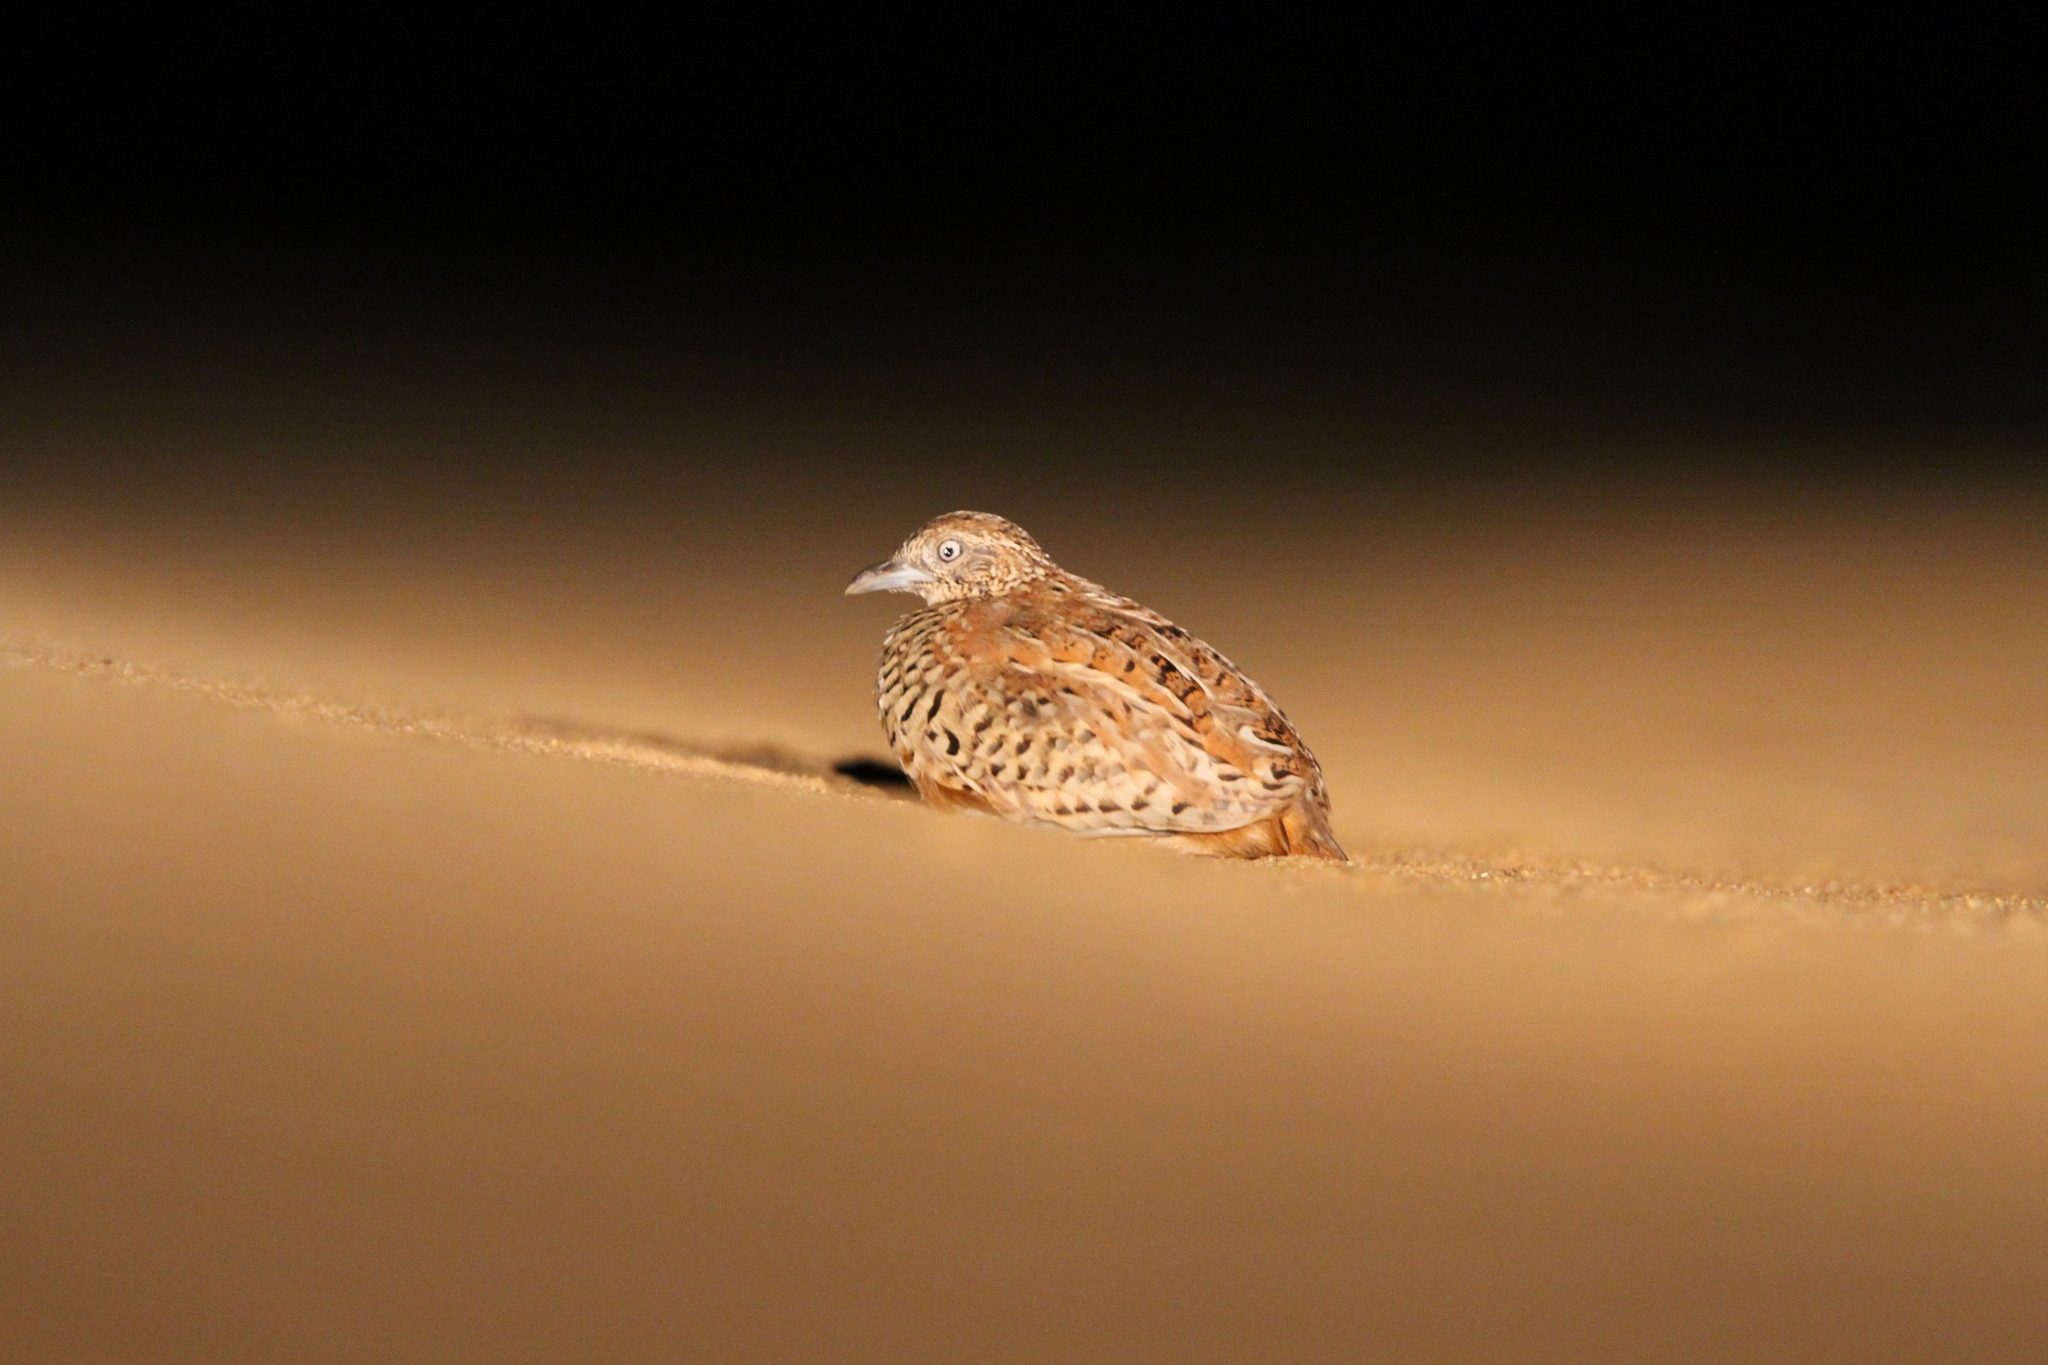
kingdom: Animalia
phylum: Chordata
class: Aves
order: Charadriiformes
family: Turnicidae
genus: Turnix
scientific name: Turnix suscitator
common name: Barred buttonquail
